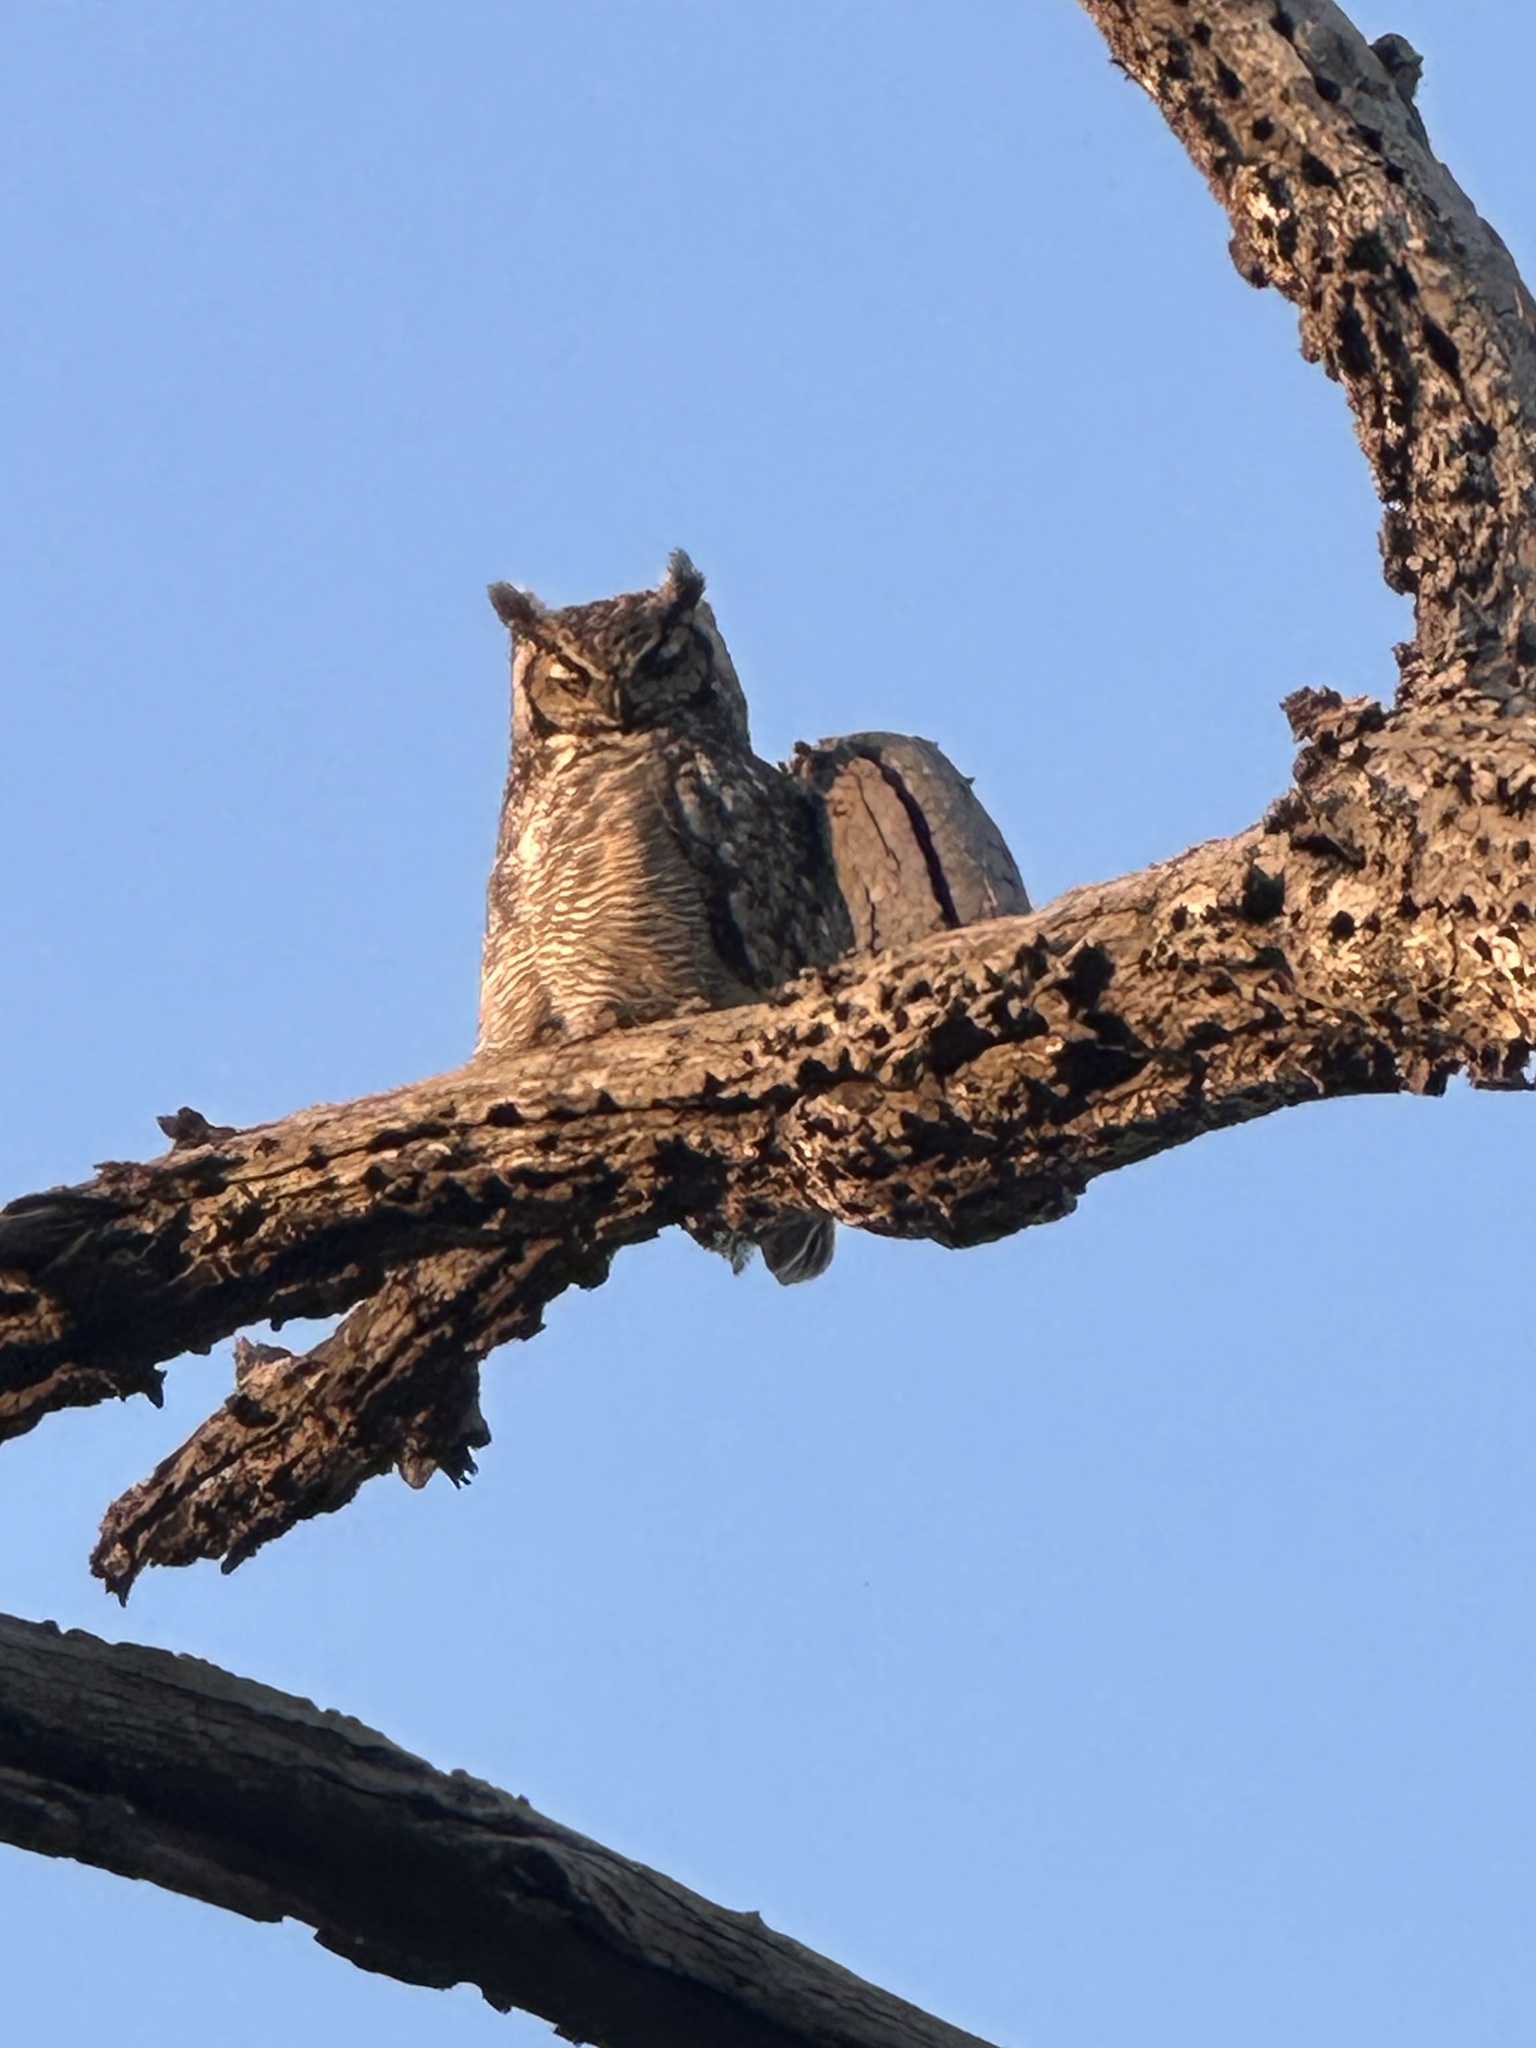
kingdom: Animalia
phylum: Chordata
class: Aves
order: Strigiformes
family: Strigidae
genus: Bubo
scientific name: Bubo virginianus
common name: Great horned owl
